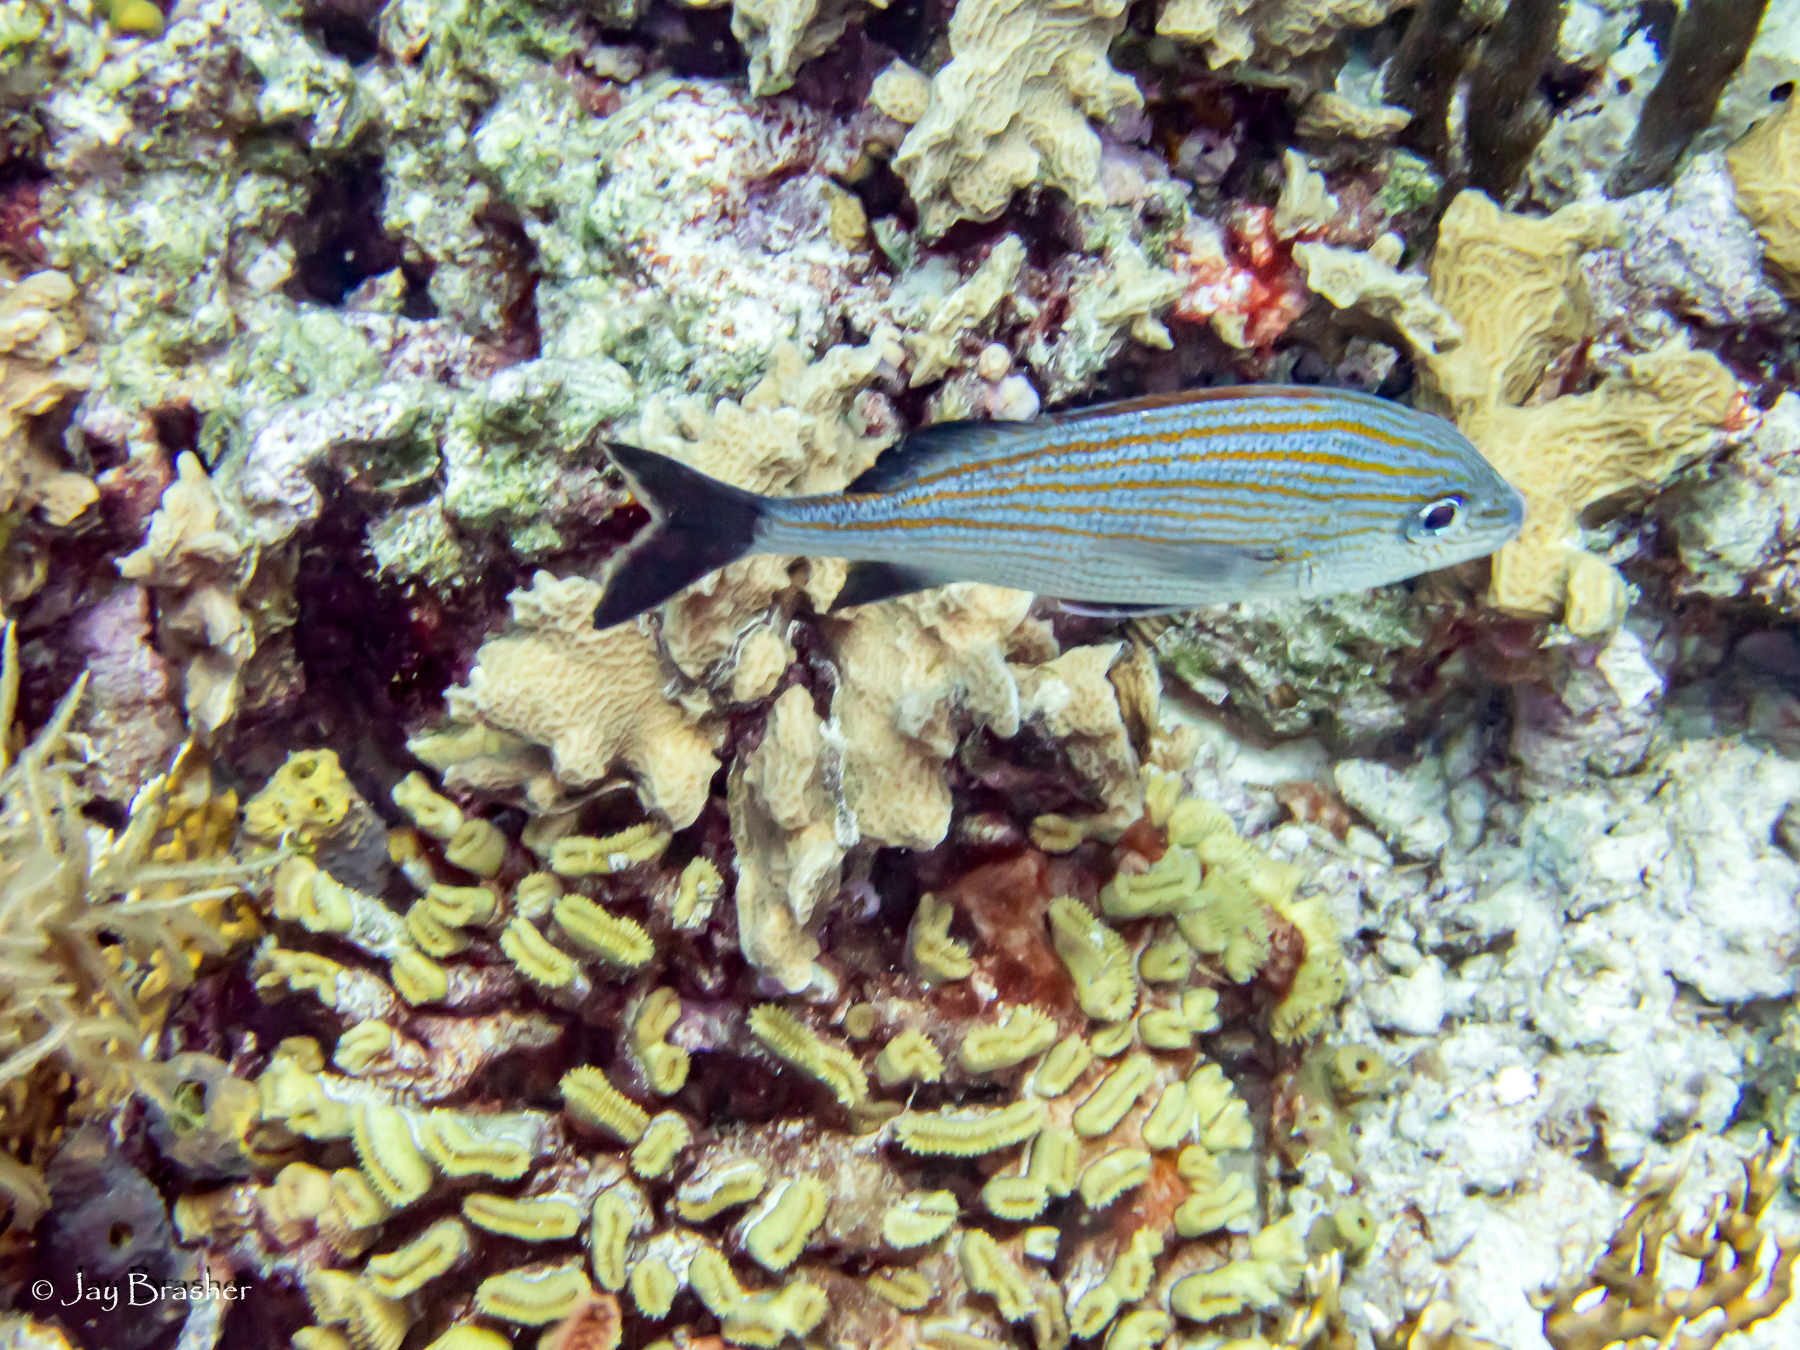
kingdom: Animalia
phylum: Chordata
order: Perciformes
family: Haemulidae
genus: Haemulon
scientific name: Haemulon carbonarium
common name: Caesar grunt
